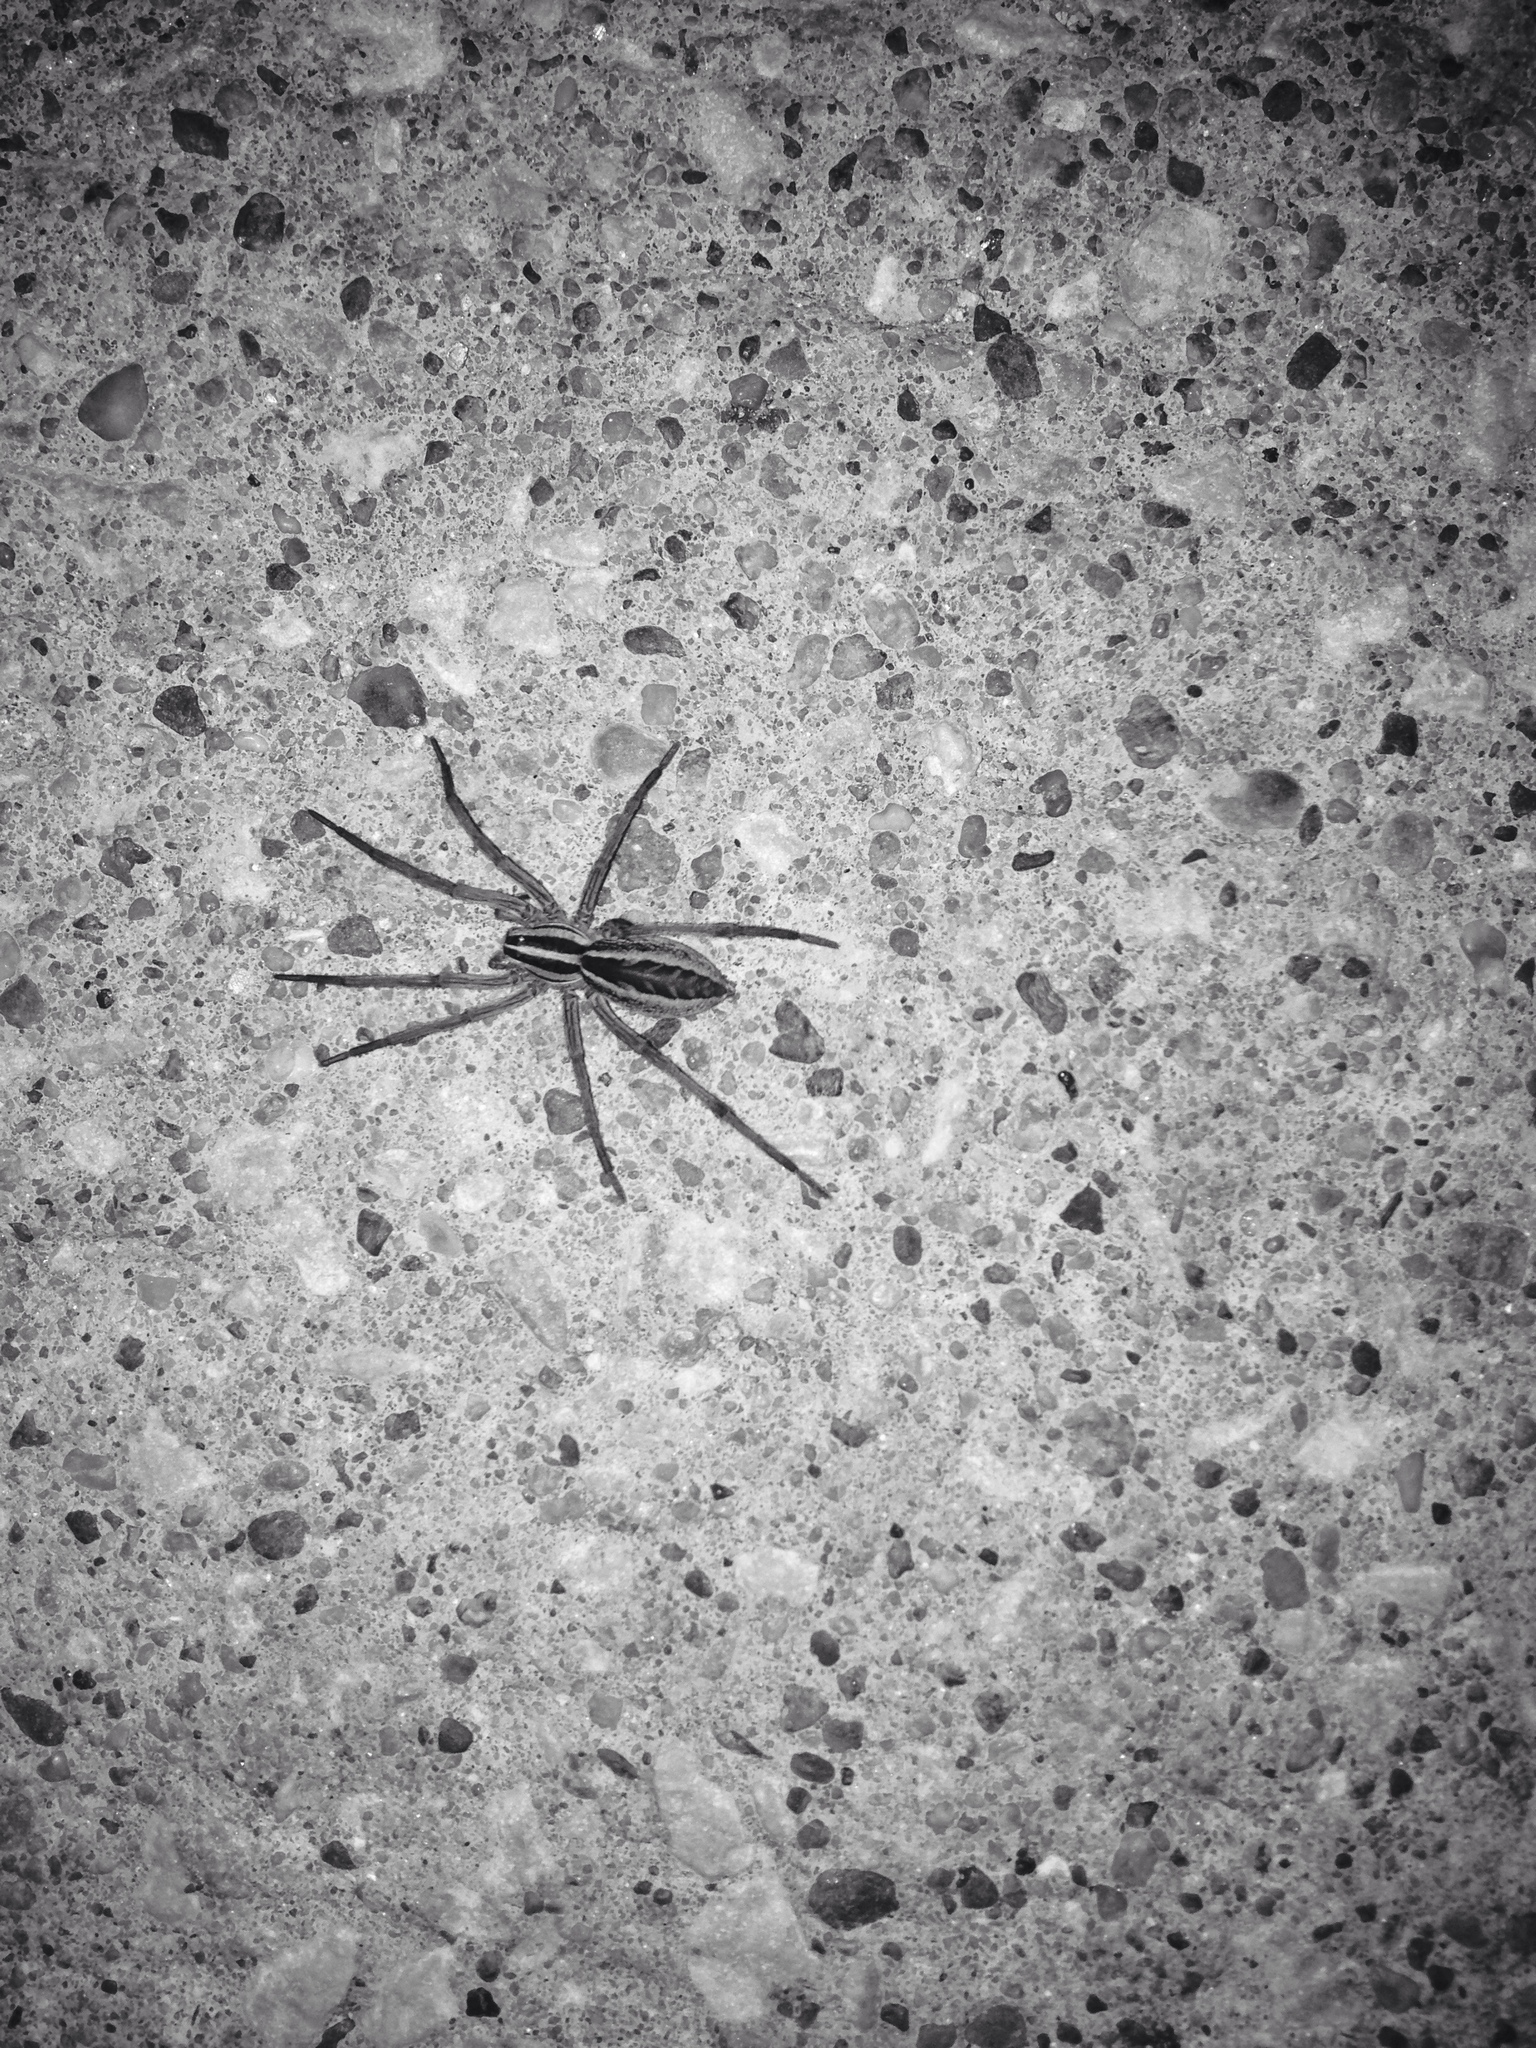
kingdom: Animalia
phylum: Arthropoda
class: Arachnida
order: Araneae
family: Lycosidae
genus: Rabidosa
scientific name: Rabidosa rabida
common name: Rabid wolf spider
